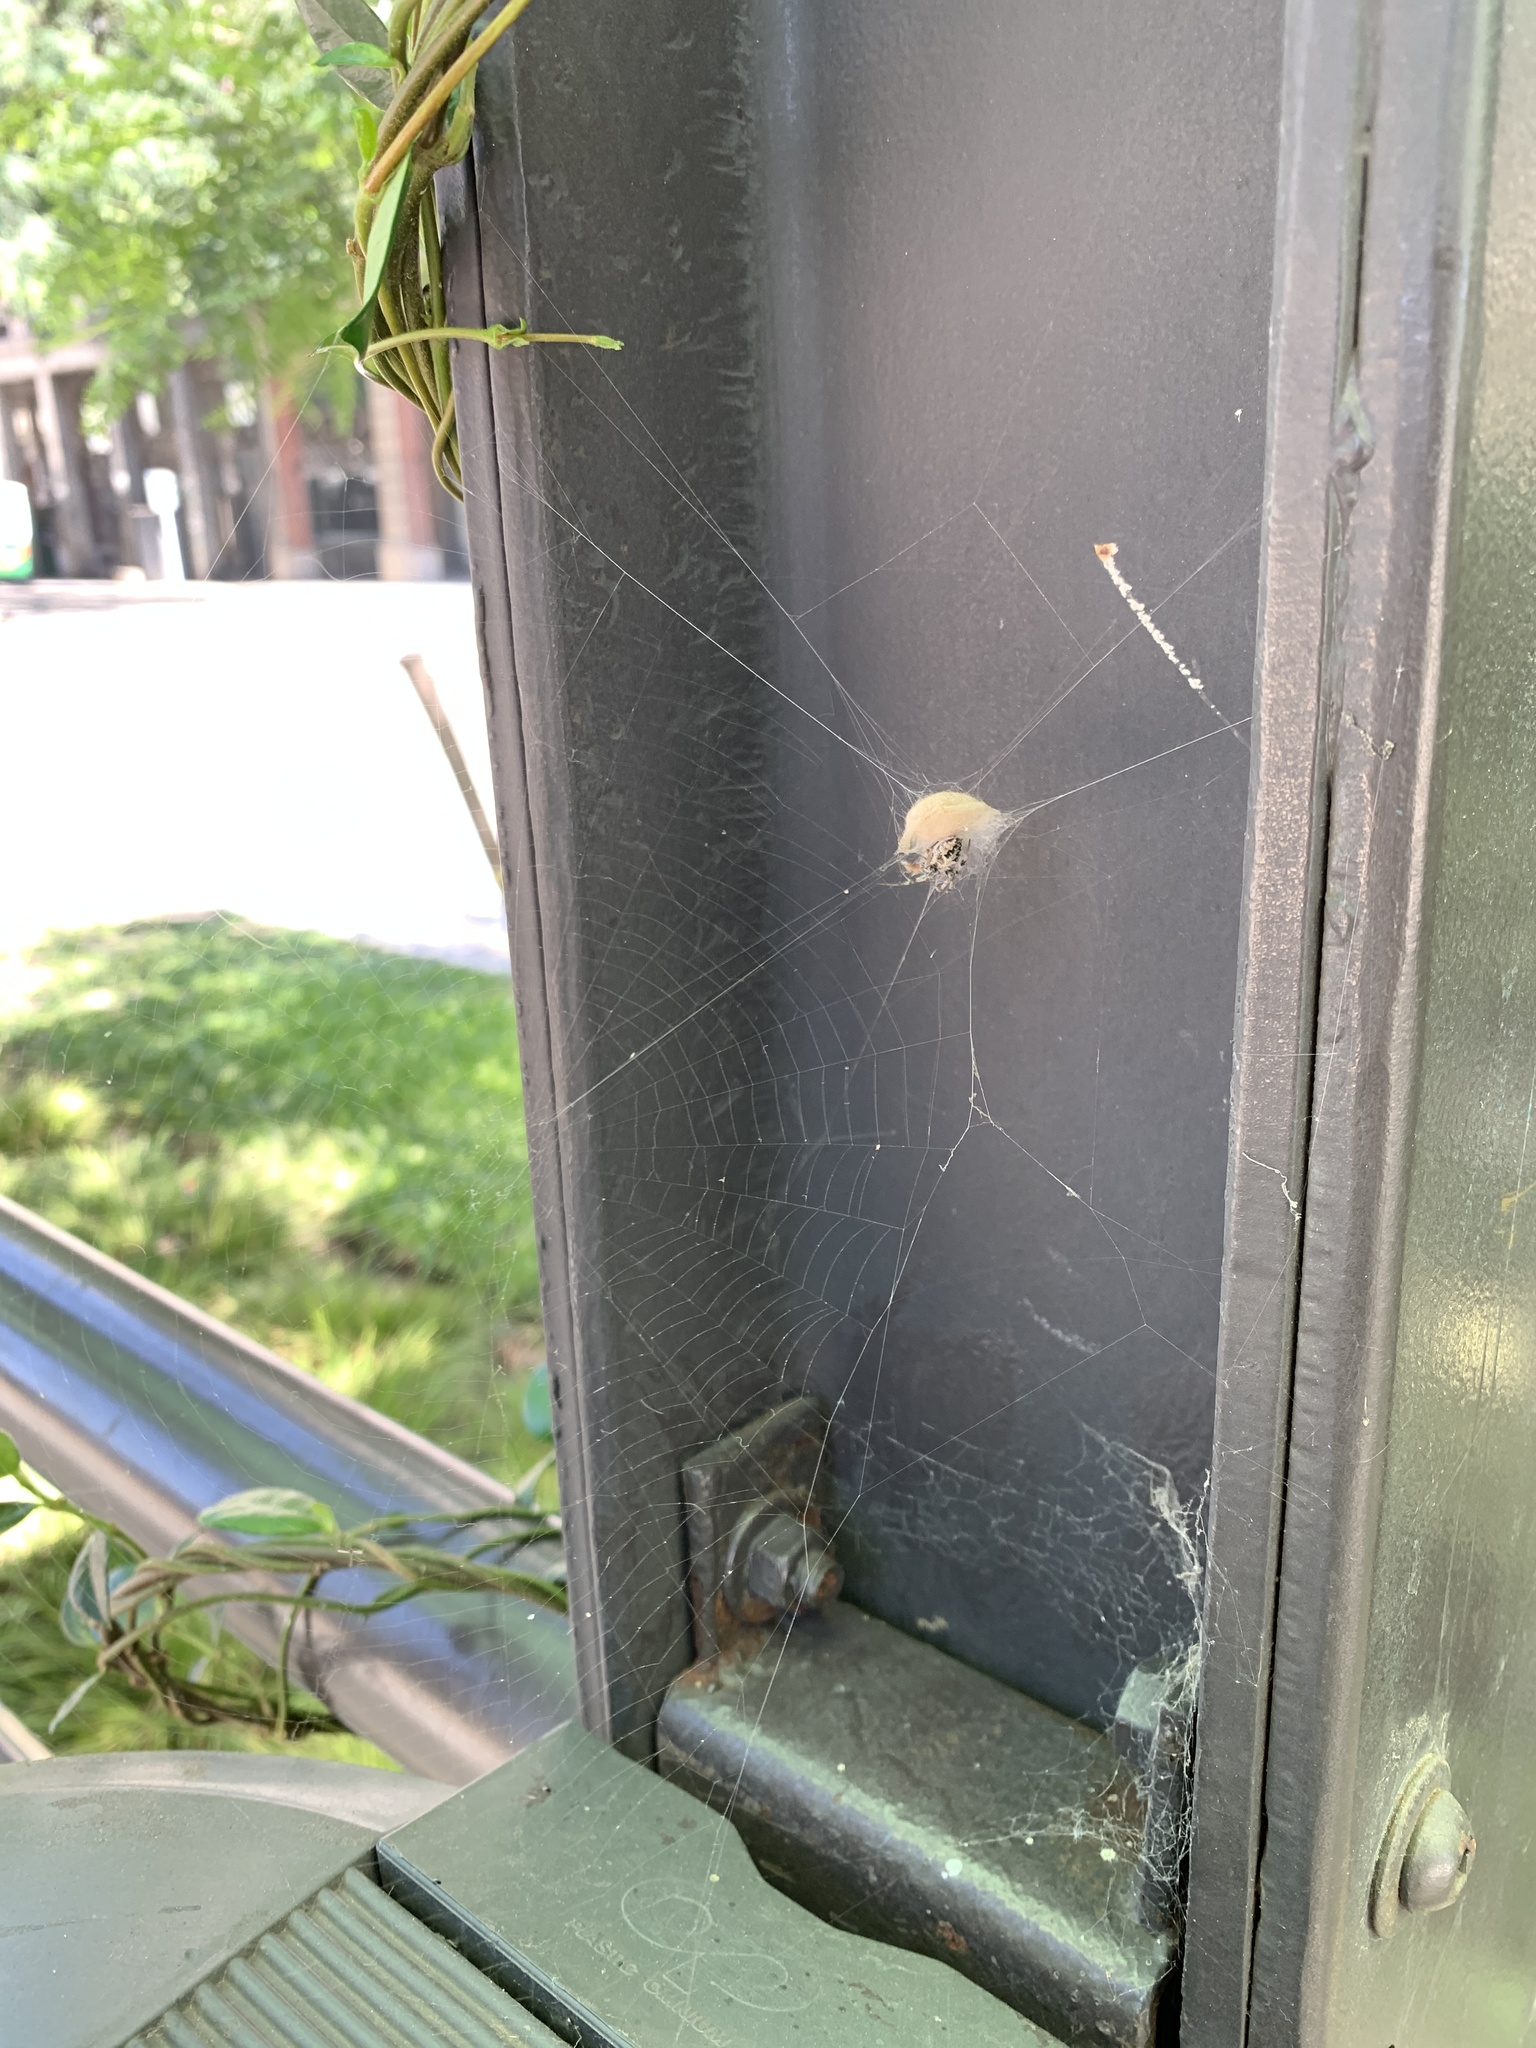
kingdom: Animalia
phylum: Arthropoda
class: Arachnida
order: Araneae
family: Araneidae
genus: Metepeira
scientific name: Metepeira
